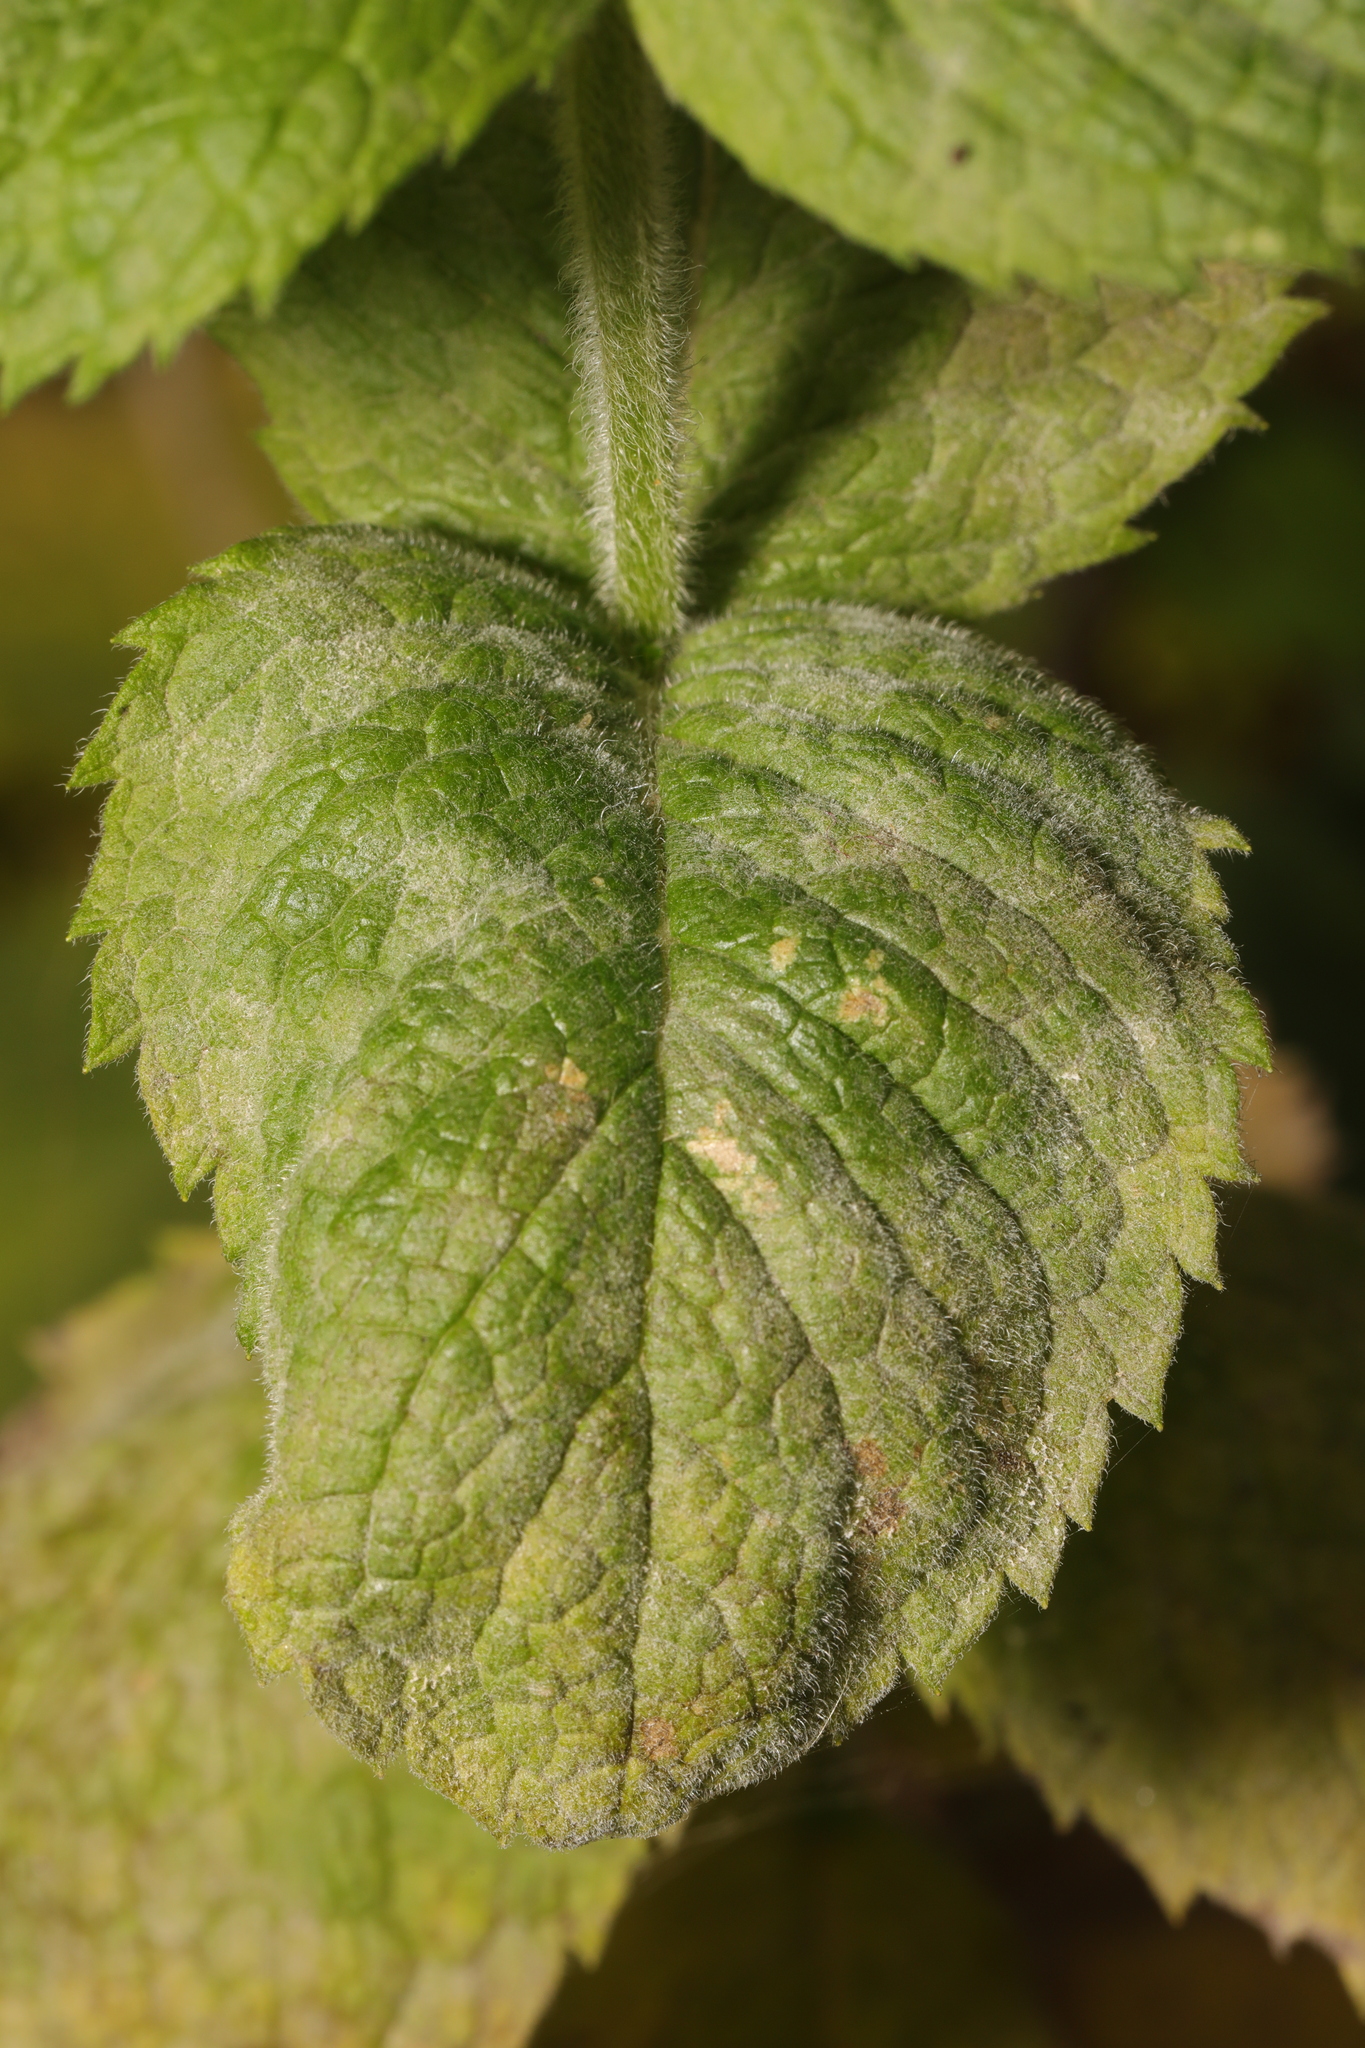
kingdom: Fungi
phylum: Ascomycota
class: Leotiomycetes
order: Helotiales
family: Erysiphaceae
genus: Golovinomyces
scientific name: Golovinomyces monardae
